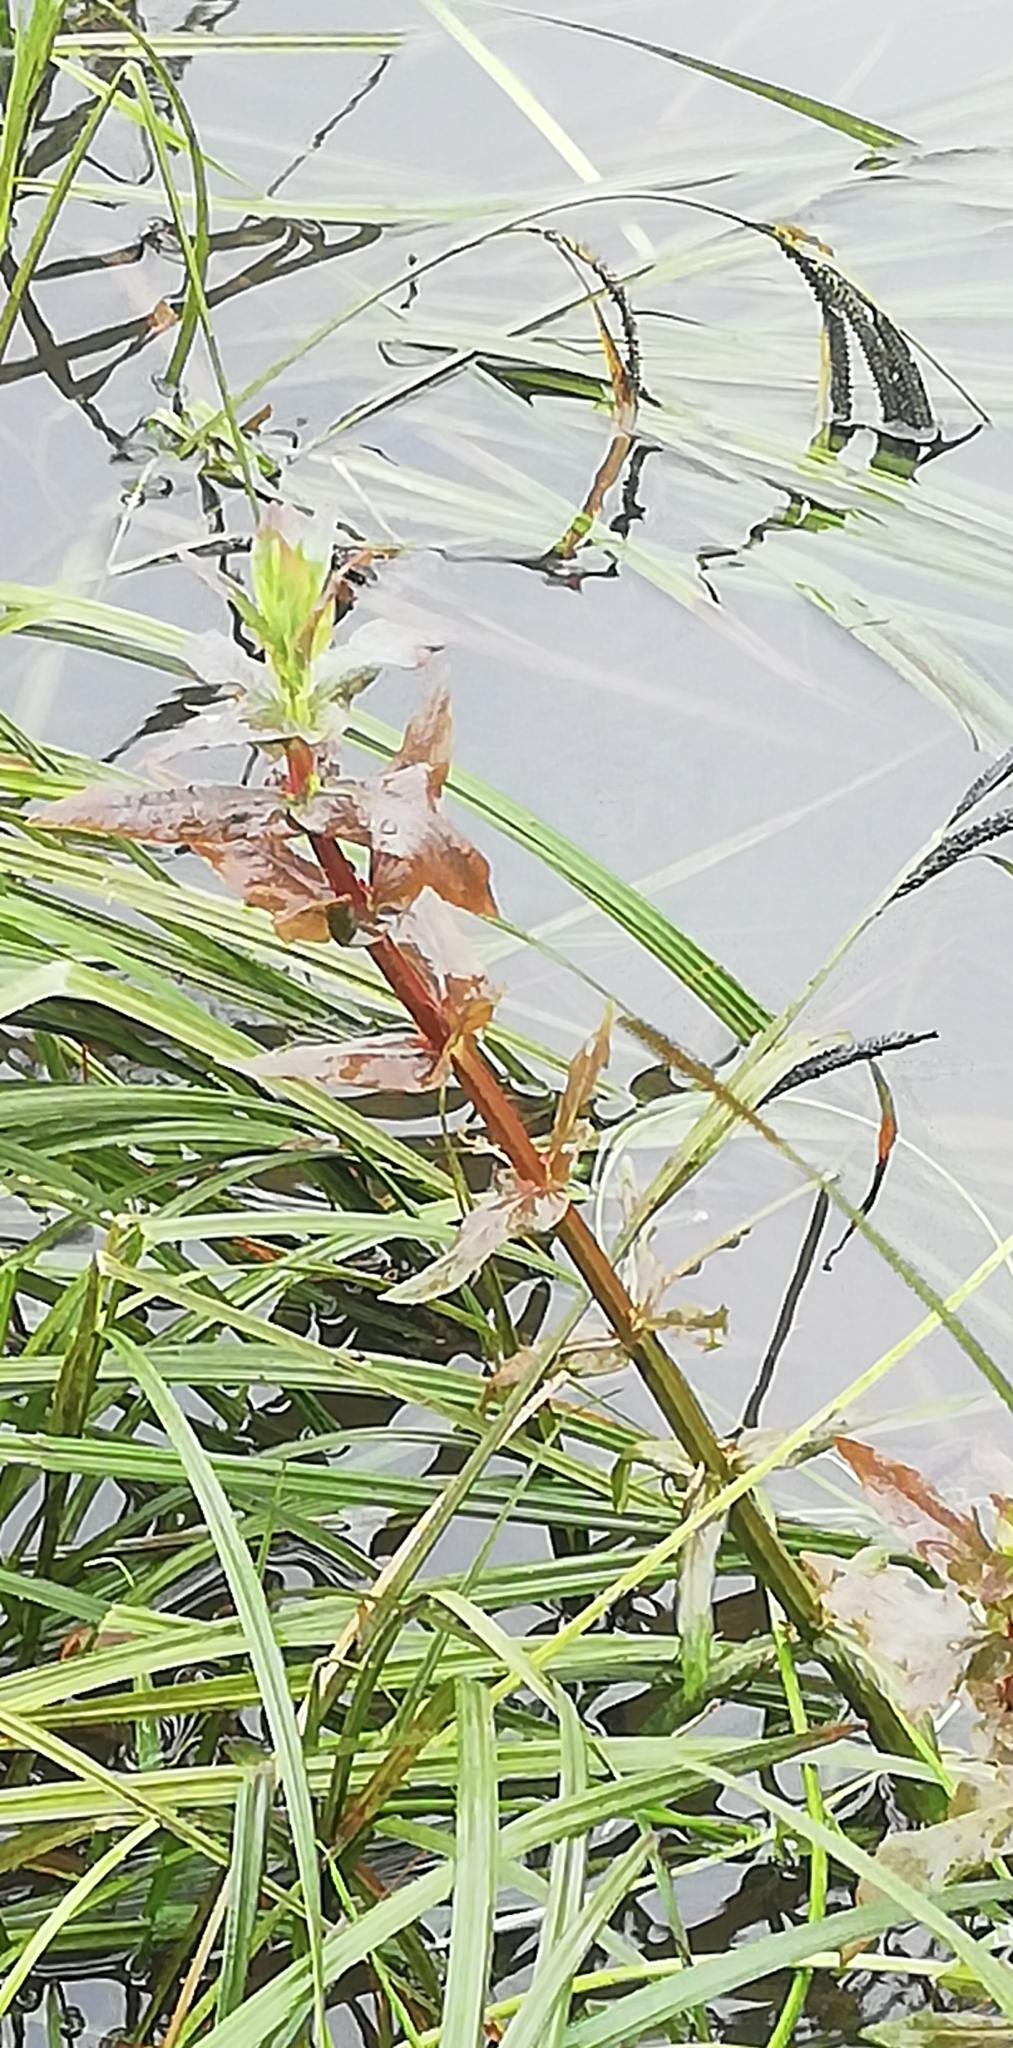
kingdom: Plantae
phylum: Tracheophyta
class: Magnoliopsida
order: Myrtales
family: Lythraceae
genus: Lythrum
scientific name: Lythrum salicaria
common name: Purple loosestrife
